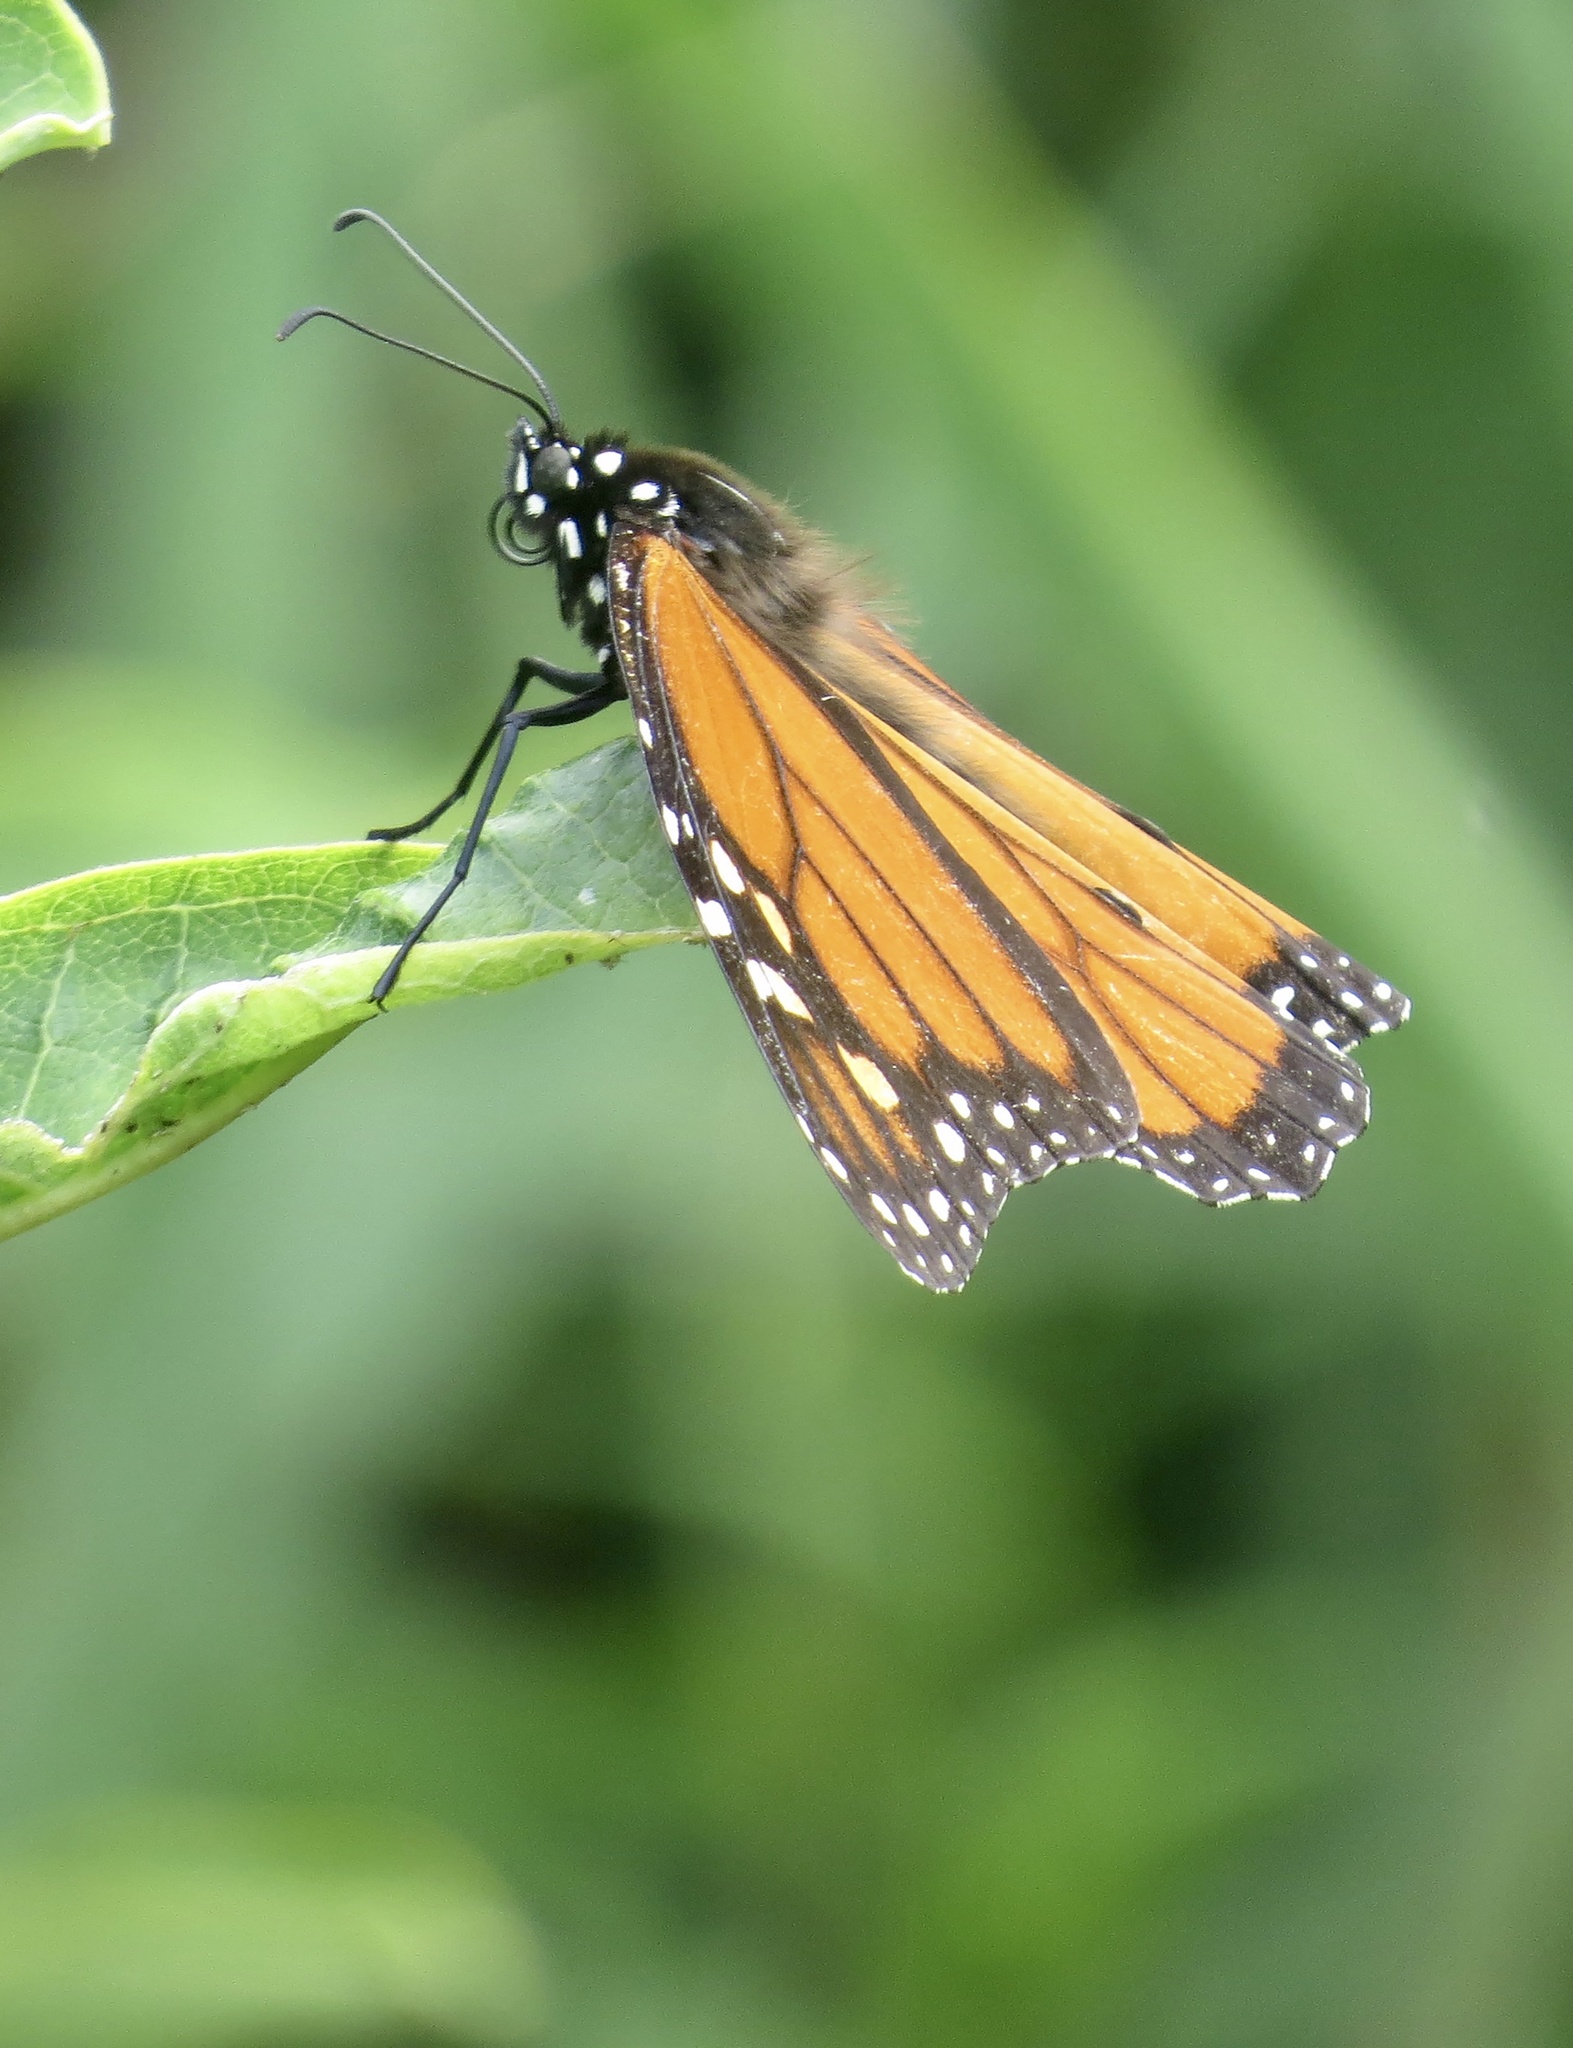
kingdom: Animalia
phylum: Arthropoda
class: Insecta
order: Lepidoptera
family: Nymphalidae
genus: Danaus
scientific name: Danaus plexippus
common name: Monarch
